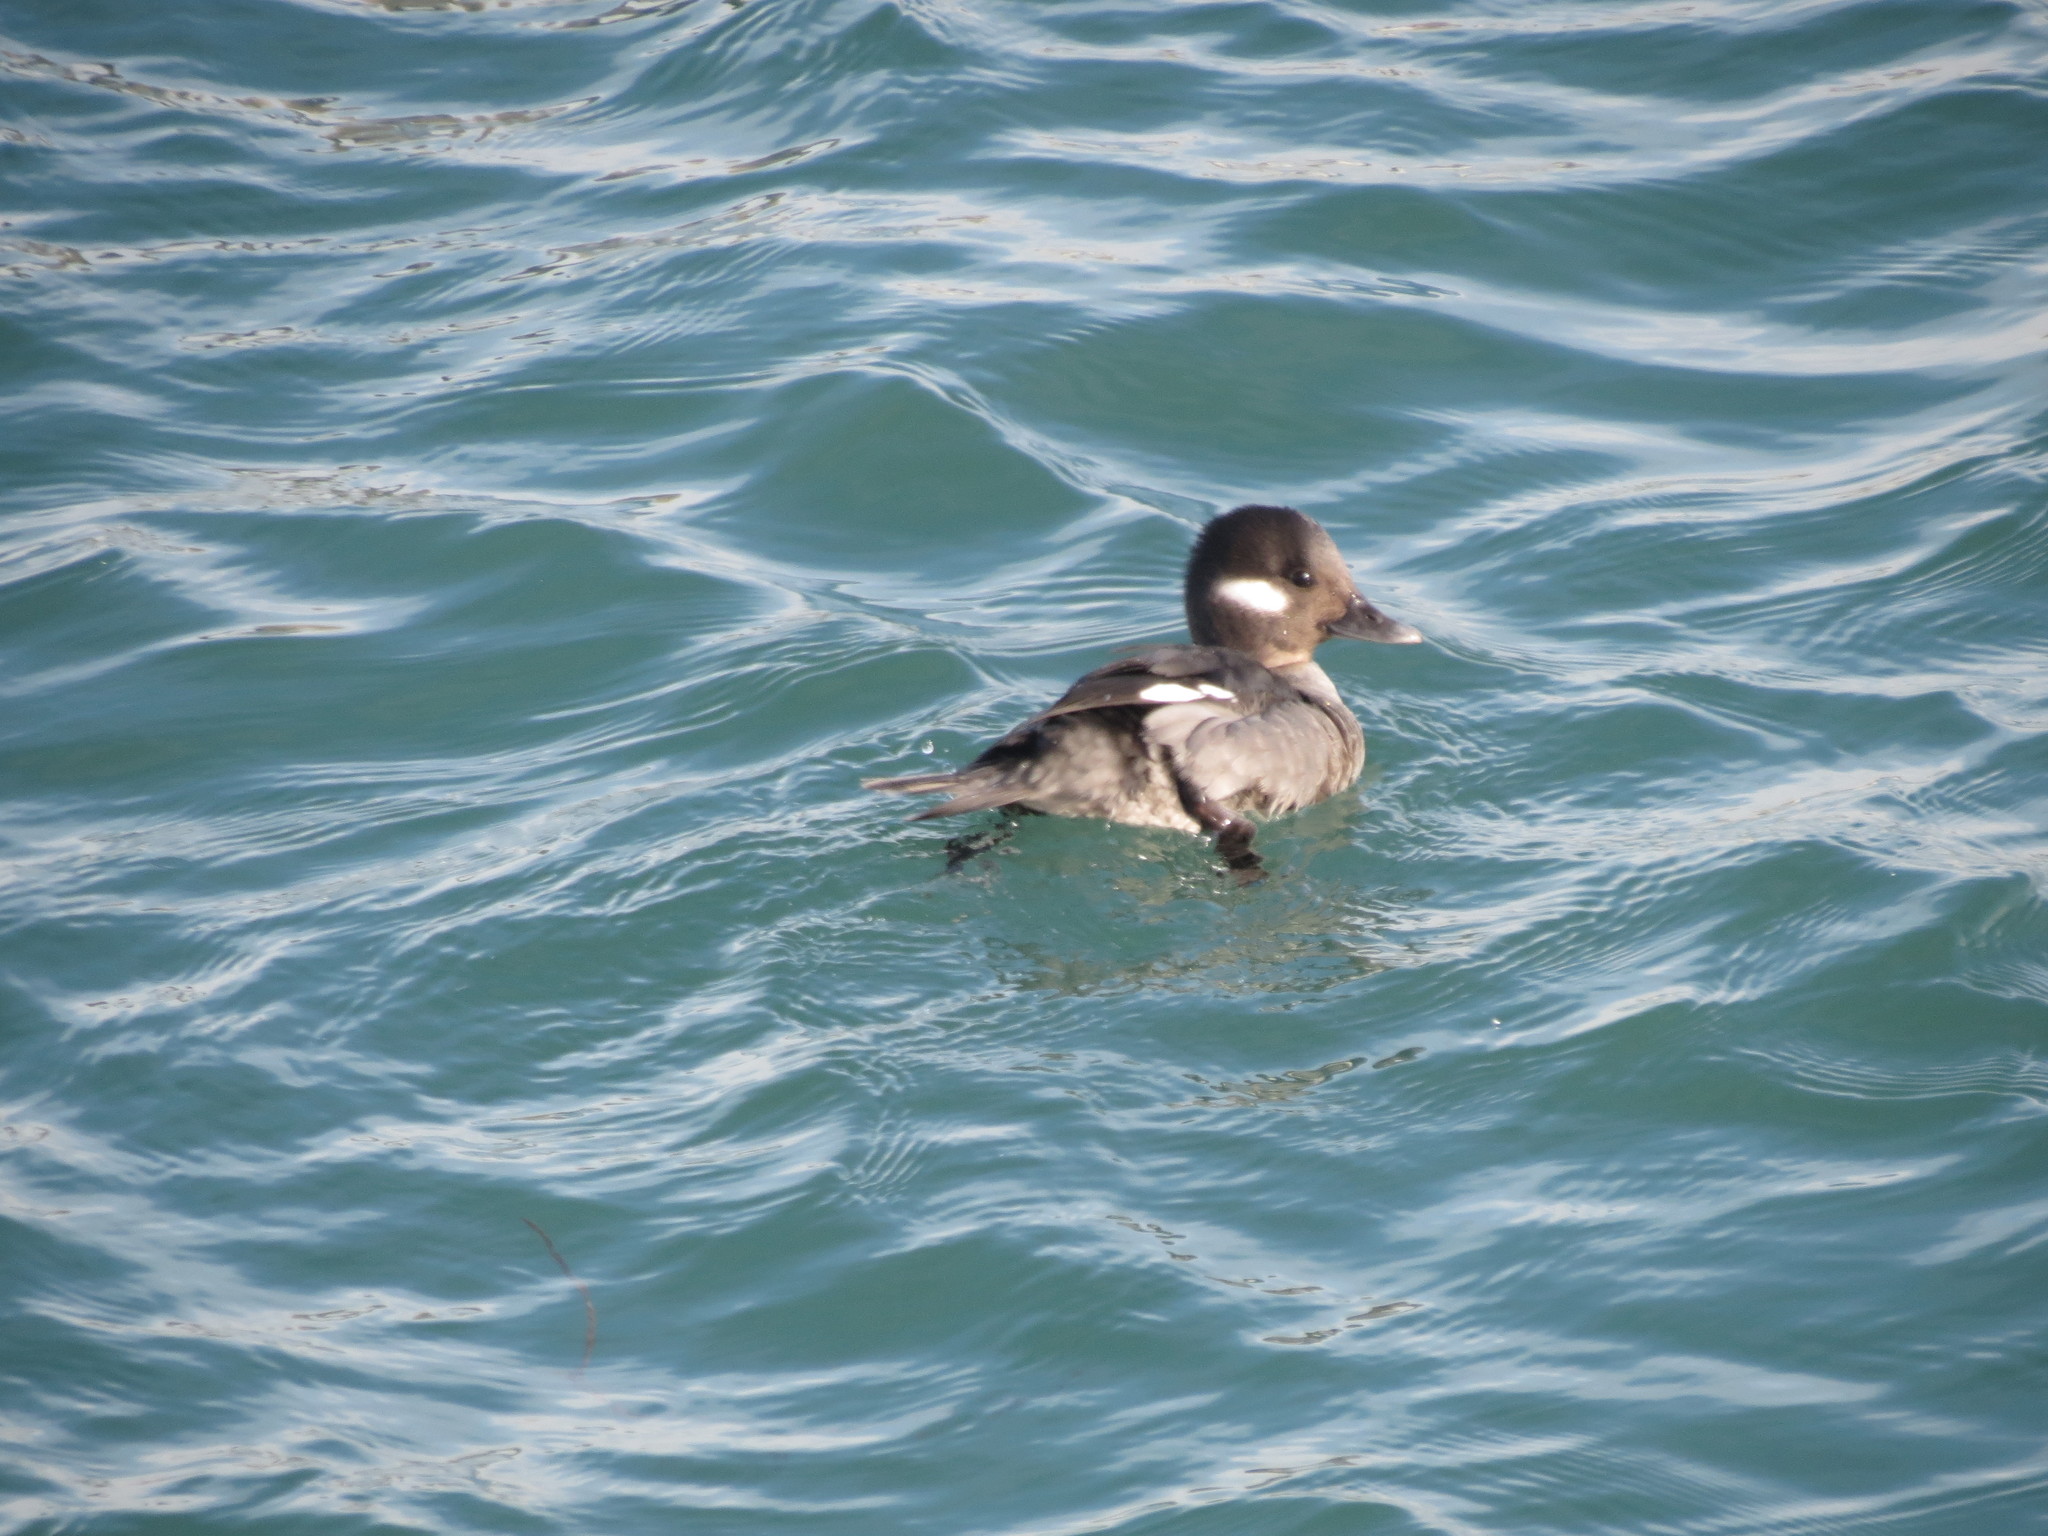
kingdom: Animalia
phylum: Chordata
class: Aves
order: Anseriformes
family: Anatidae
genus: Bucephala
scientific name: Bucephala albeola
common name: Bufflehead
